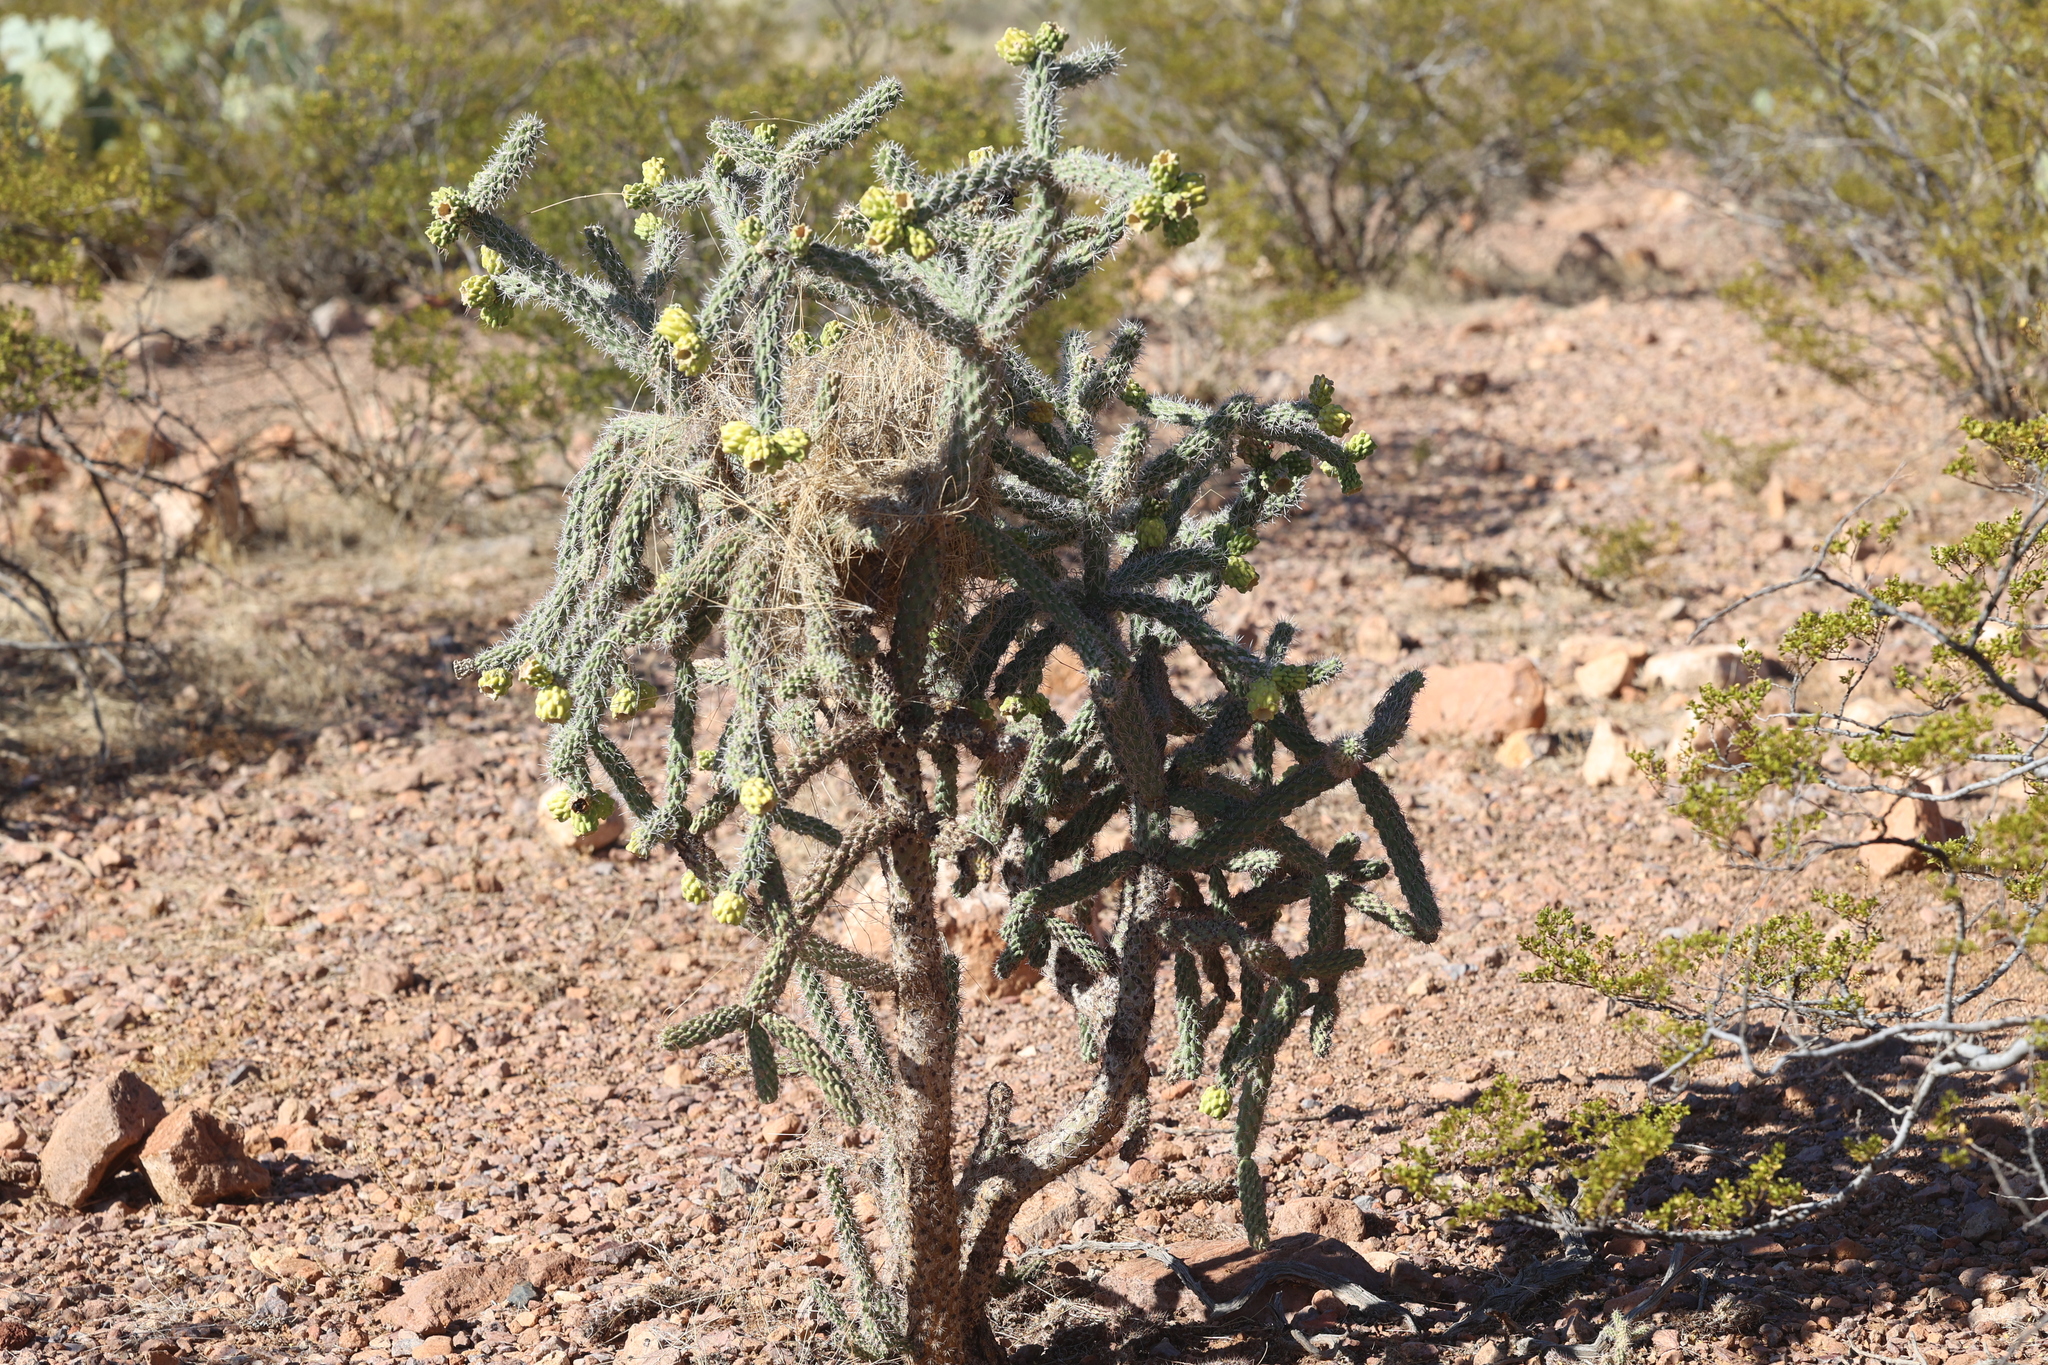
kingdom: Plantae
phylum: Tracheophyta
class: Magnoliopsida
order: Caryophyllales
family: Cactaceae
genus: Cylindropuntia
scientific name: Cylindropuntia imbricata
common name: Candelabrum cactus
